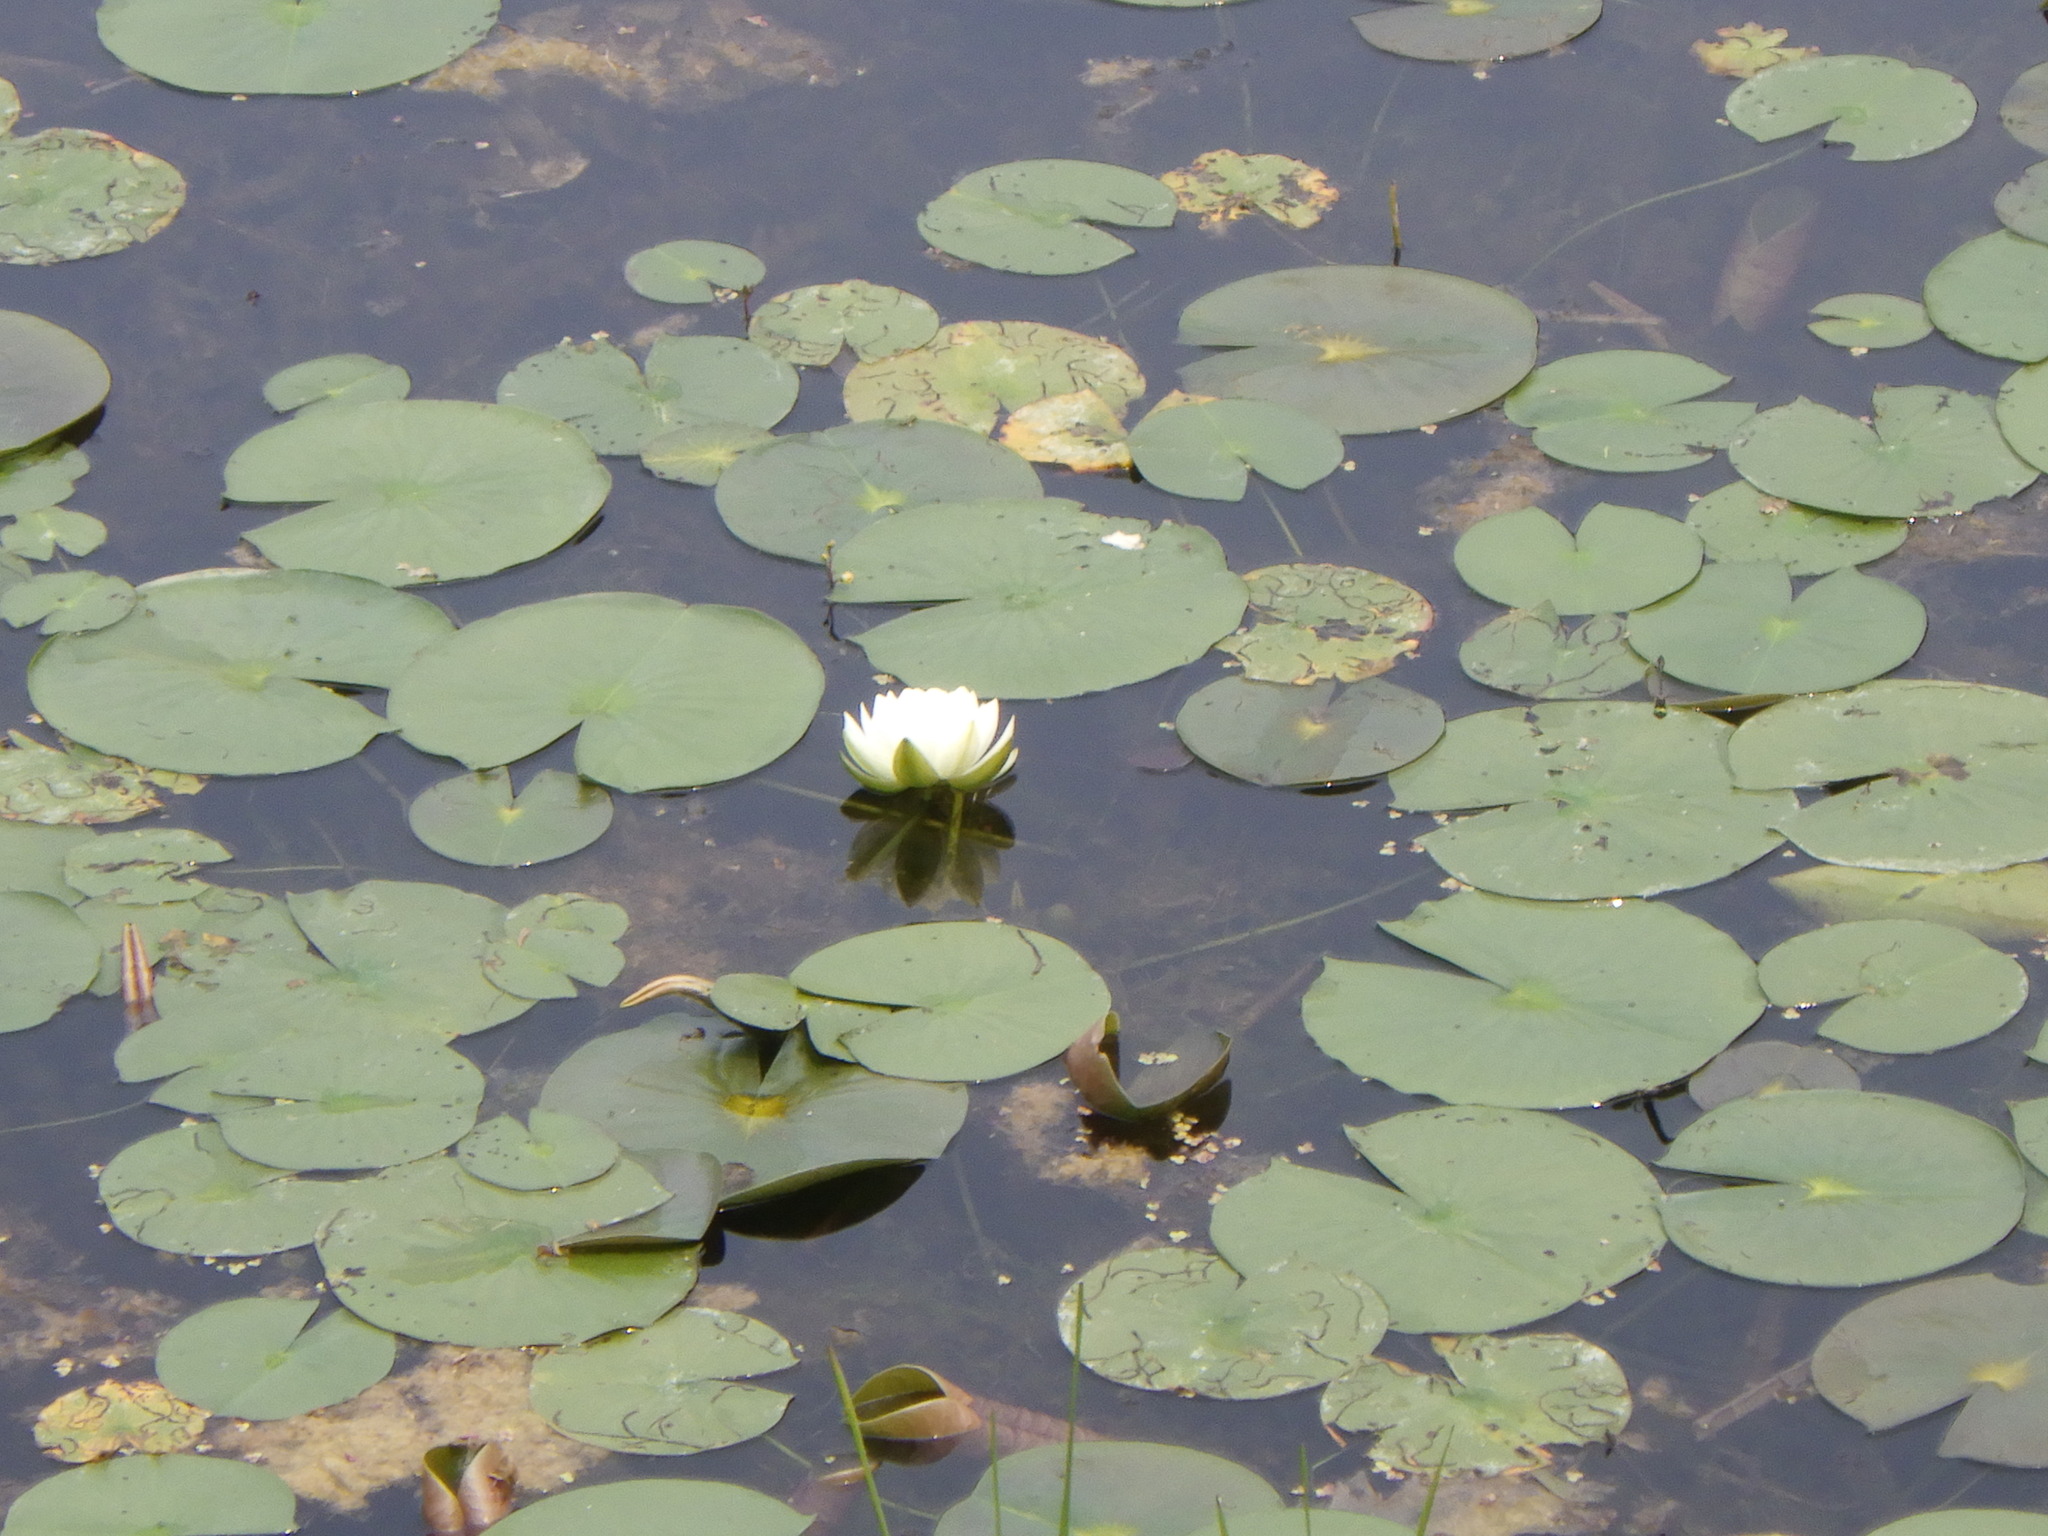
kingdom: Plantae
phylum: Tracheophyta
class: Magnoliopsida
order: Nymphaeales
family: Nymphaeaceae
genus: Nymphaea
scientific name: Nymphaea odorata
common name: Fragrant water-lily
